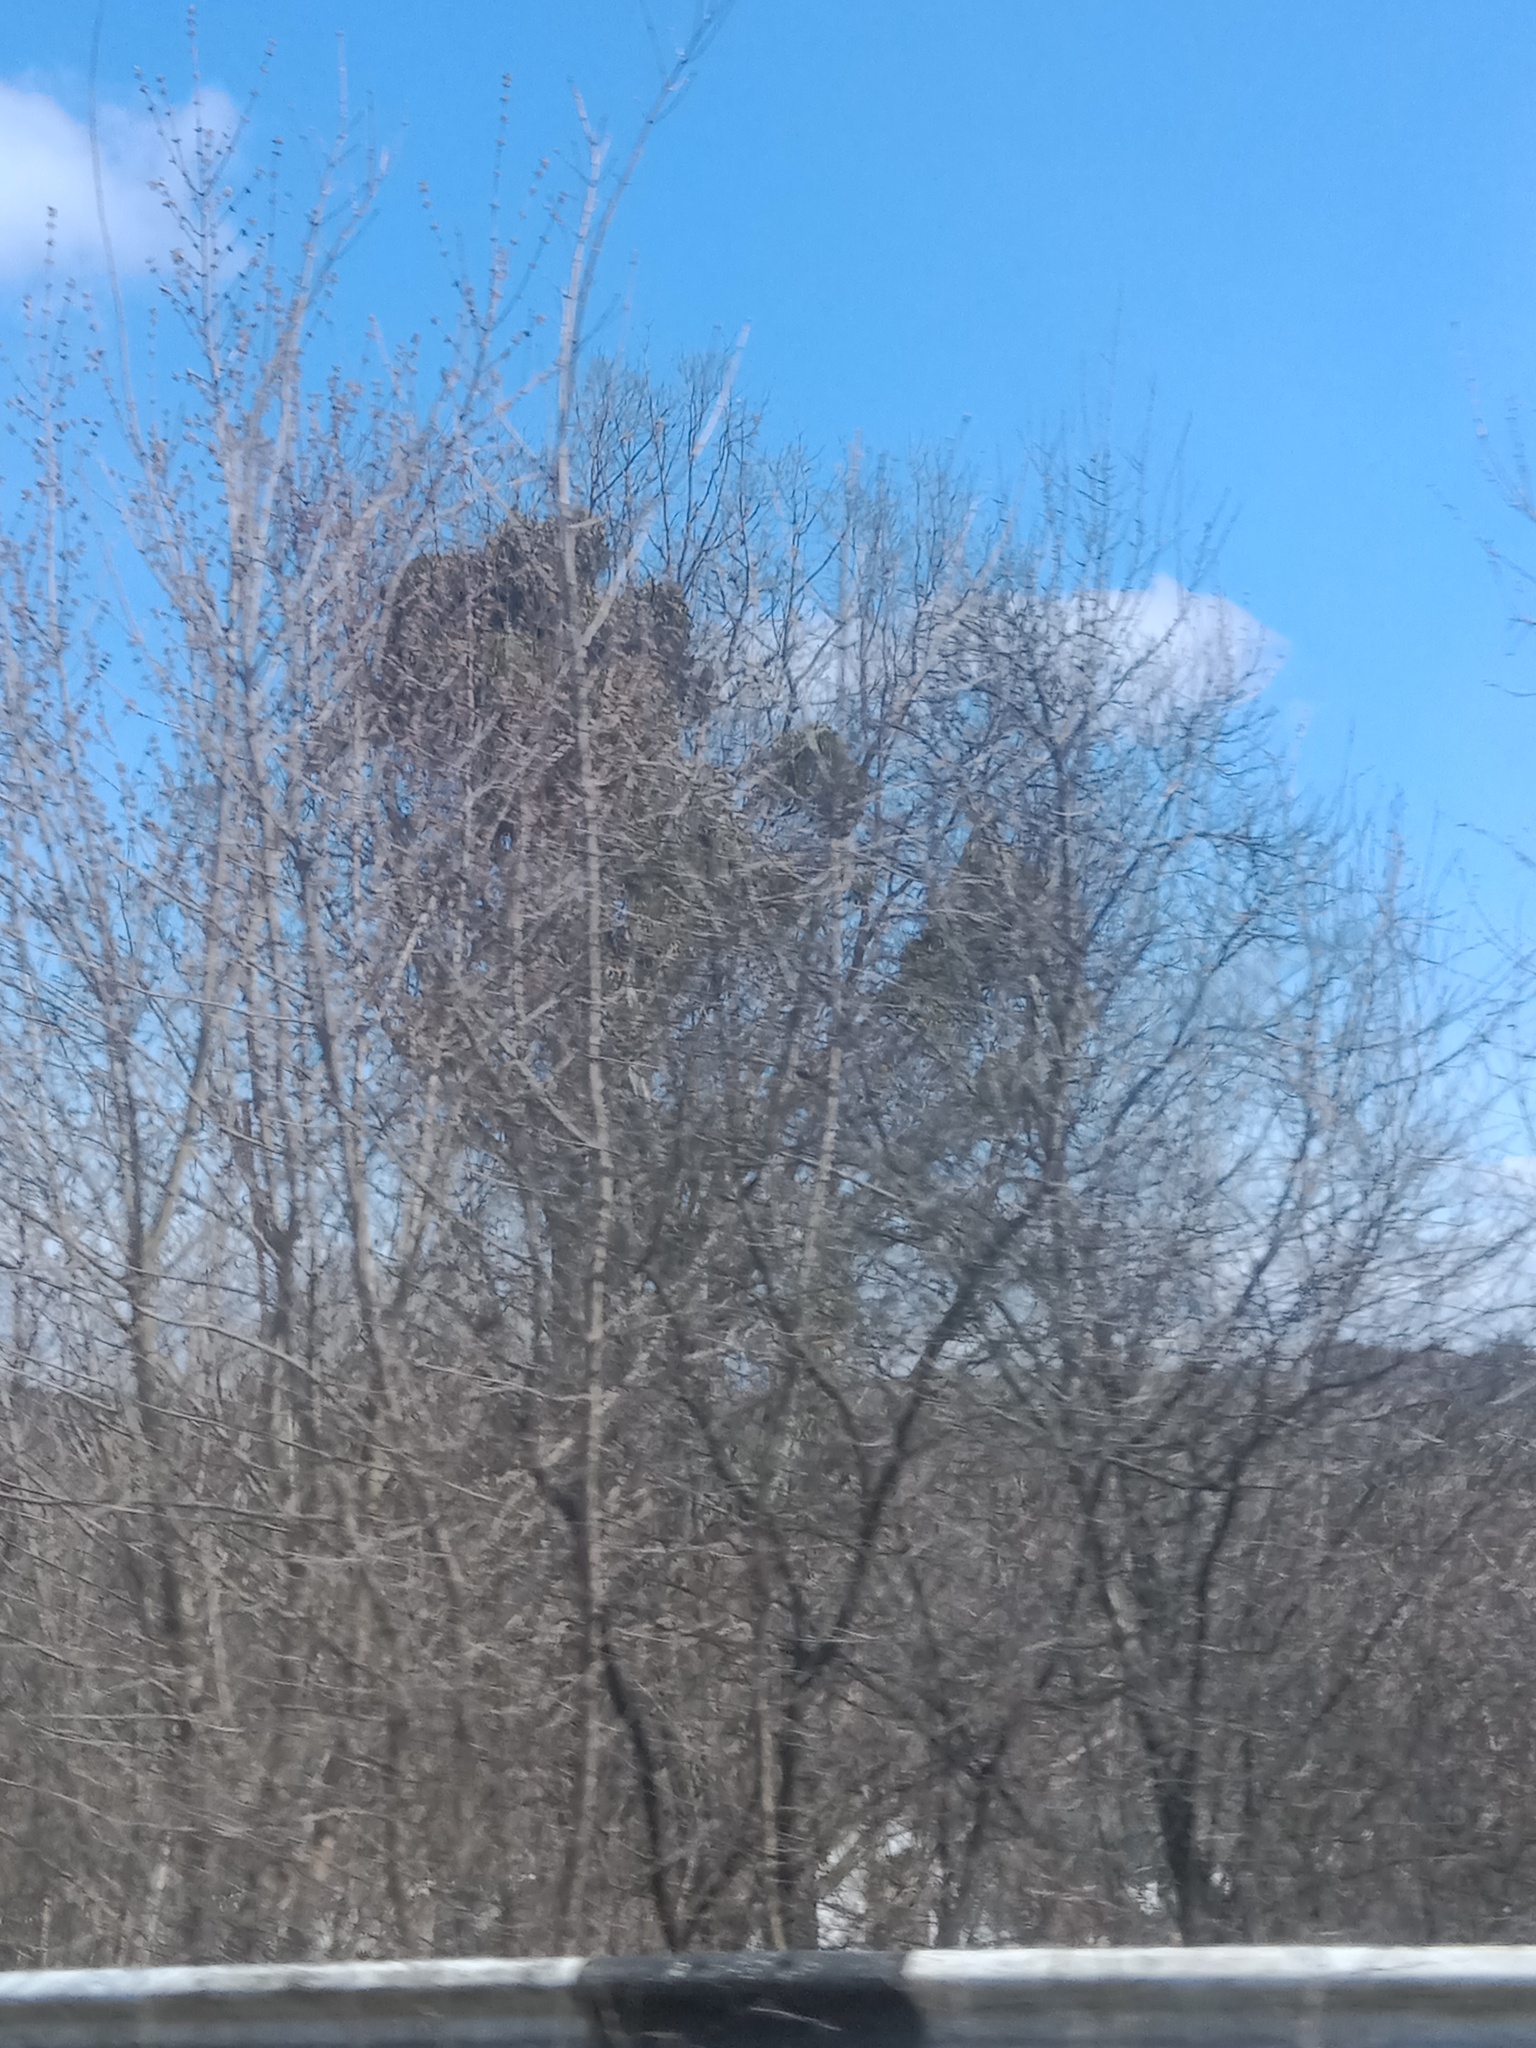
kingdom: Plantae
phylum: Tracheophyta
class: Magnoliopsida
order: Santalales
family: Viscaceae
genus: Viscum
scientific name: Viscum album
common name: Mistletoe
